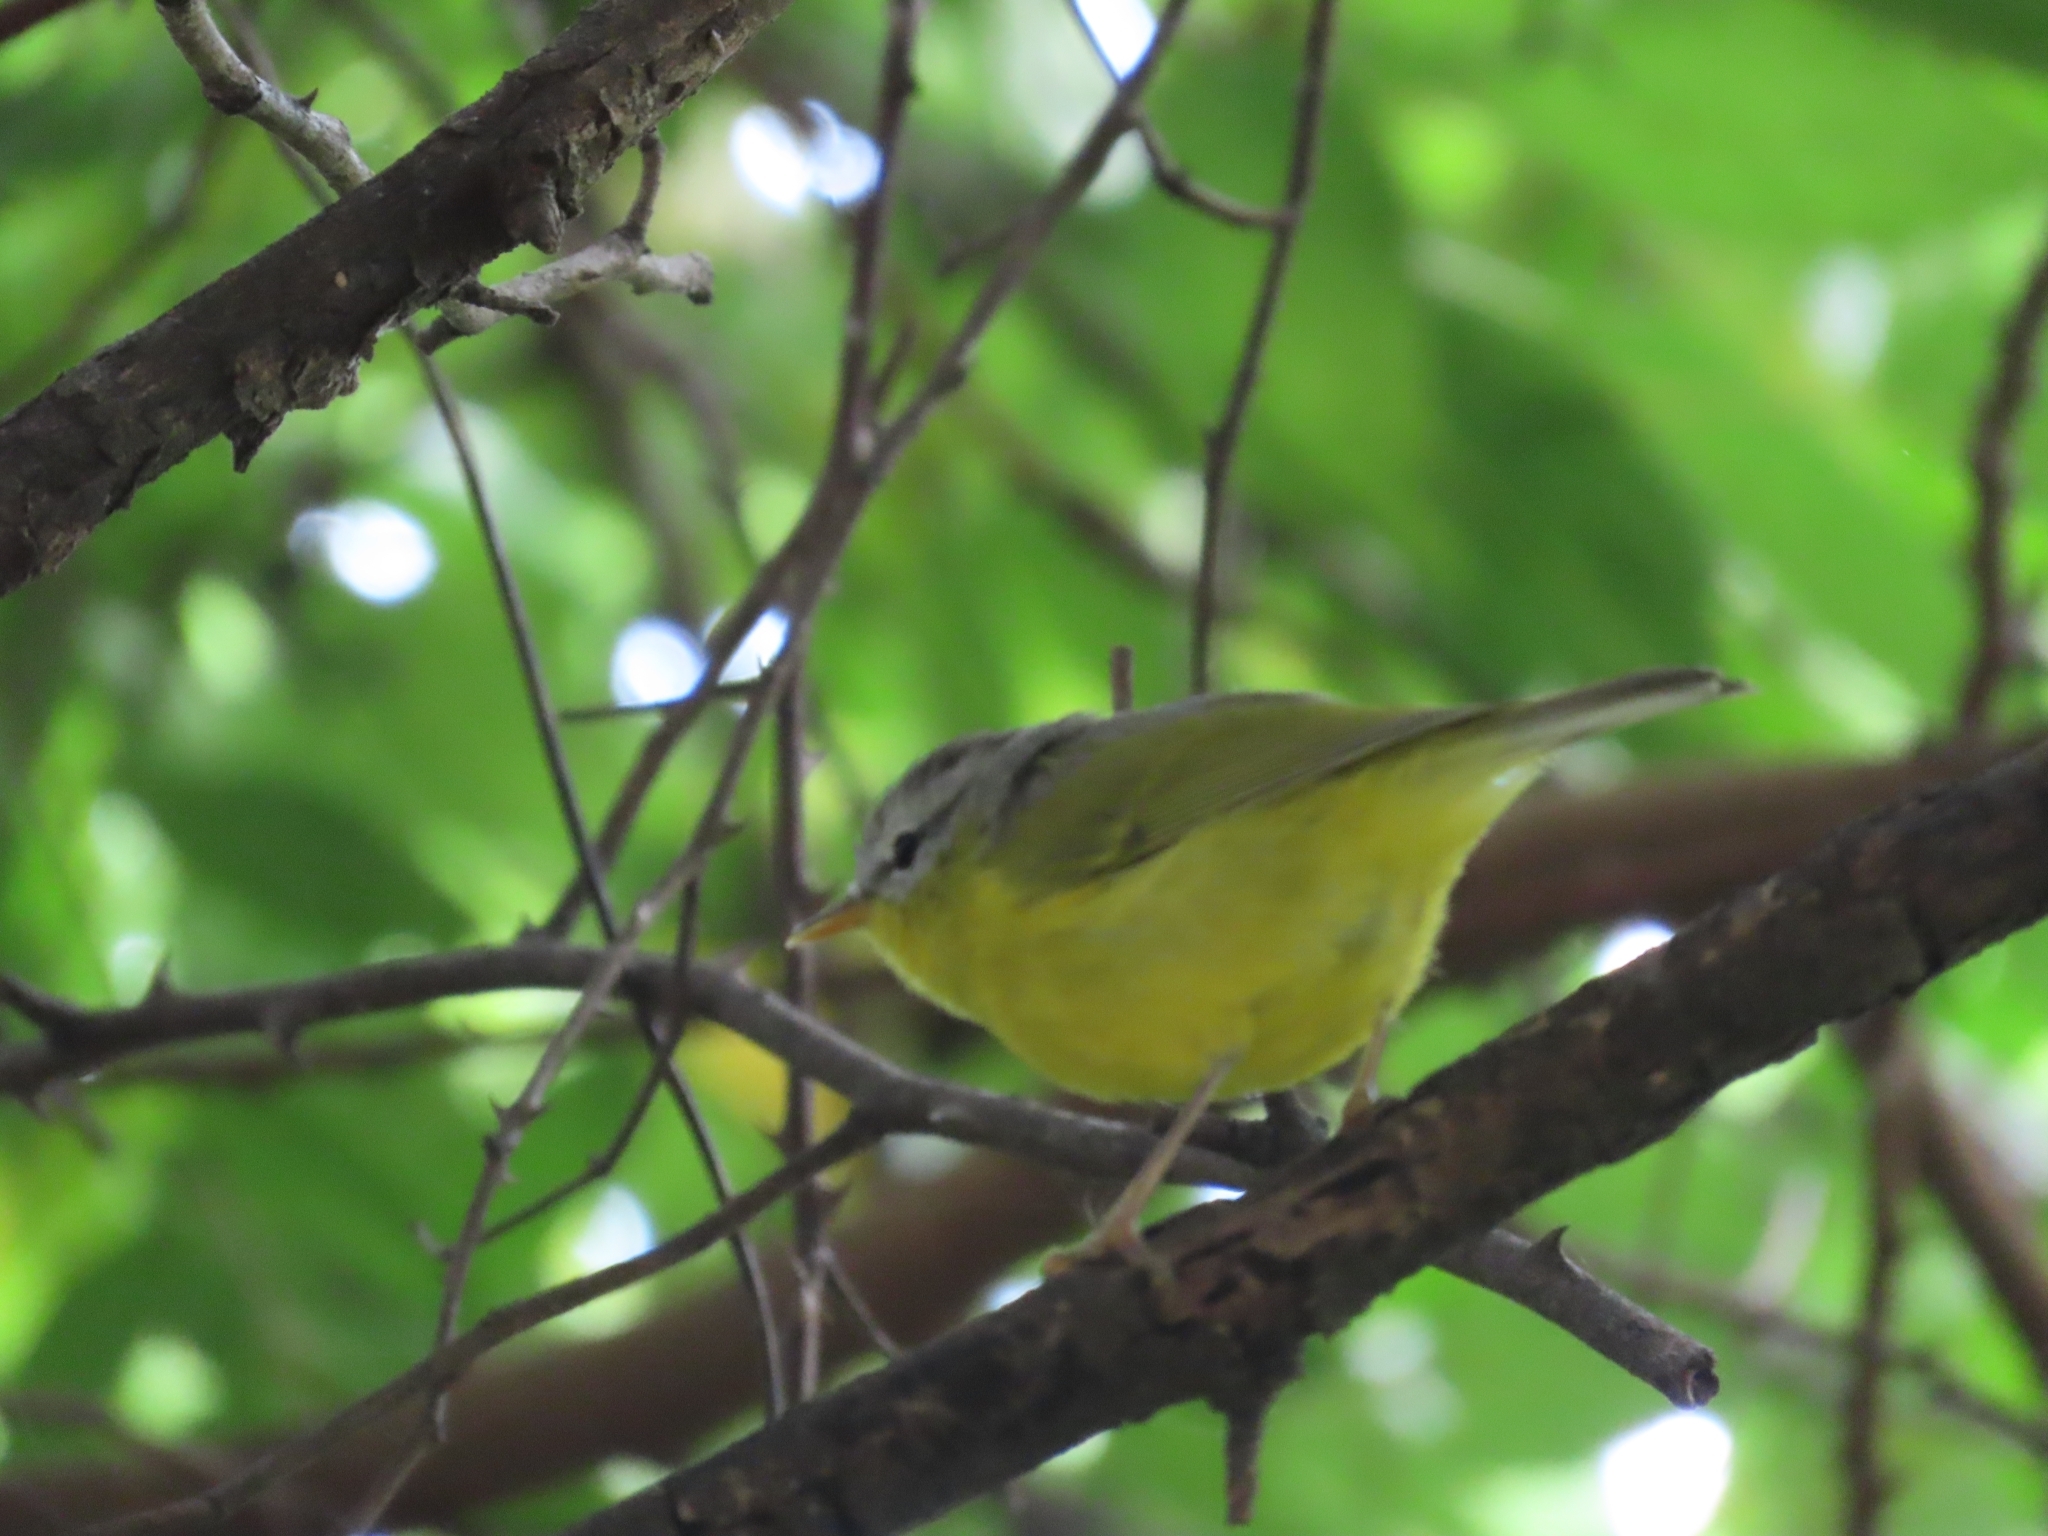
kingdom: Animalia
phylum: Chordata
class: Aves
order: Passeriformes
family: Phylloscopidae
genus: Phylloscopus
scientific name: Phylloscopus xanthoschistos
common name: Grey-hooded warbler
